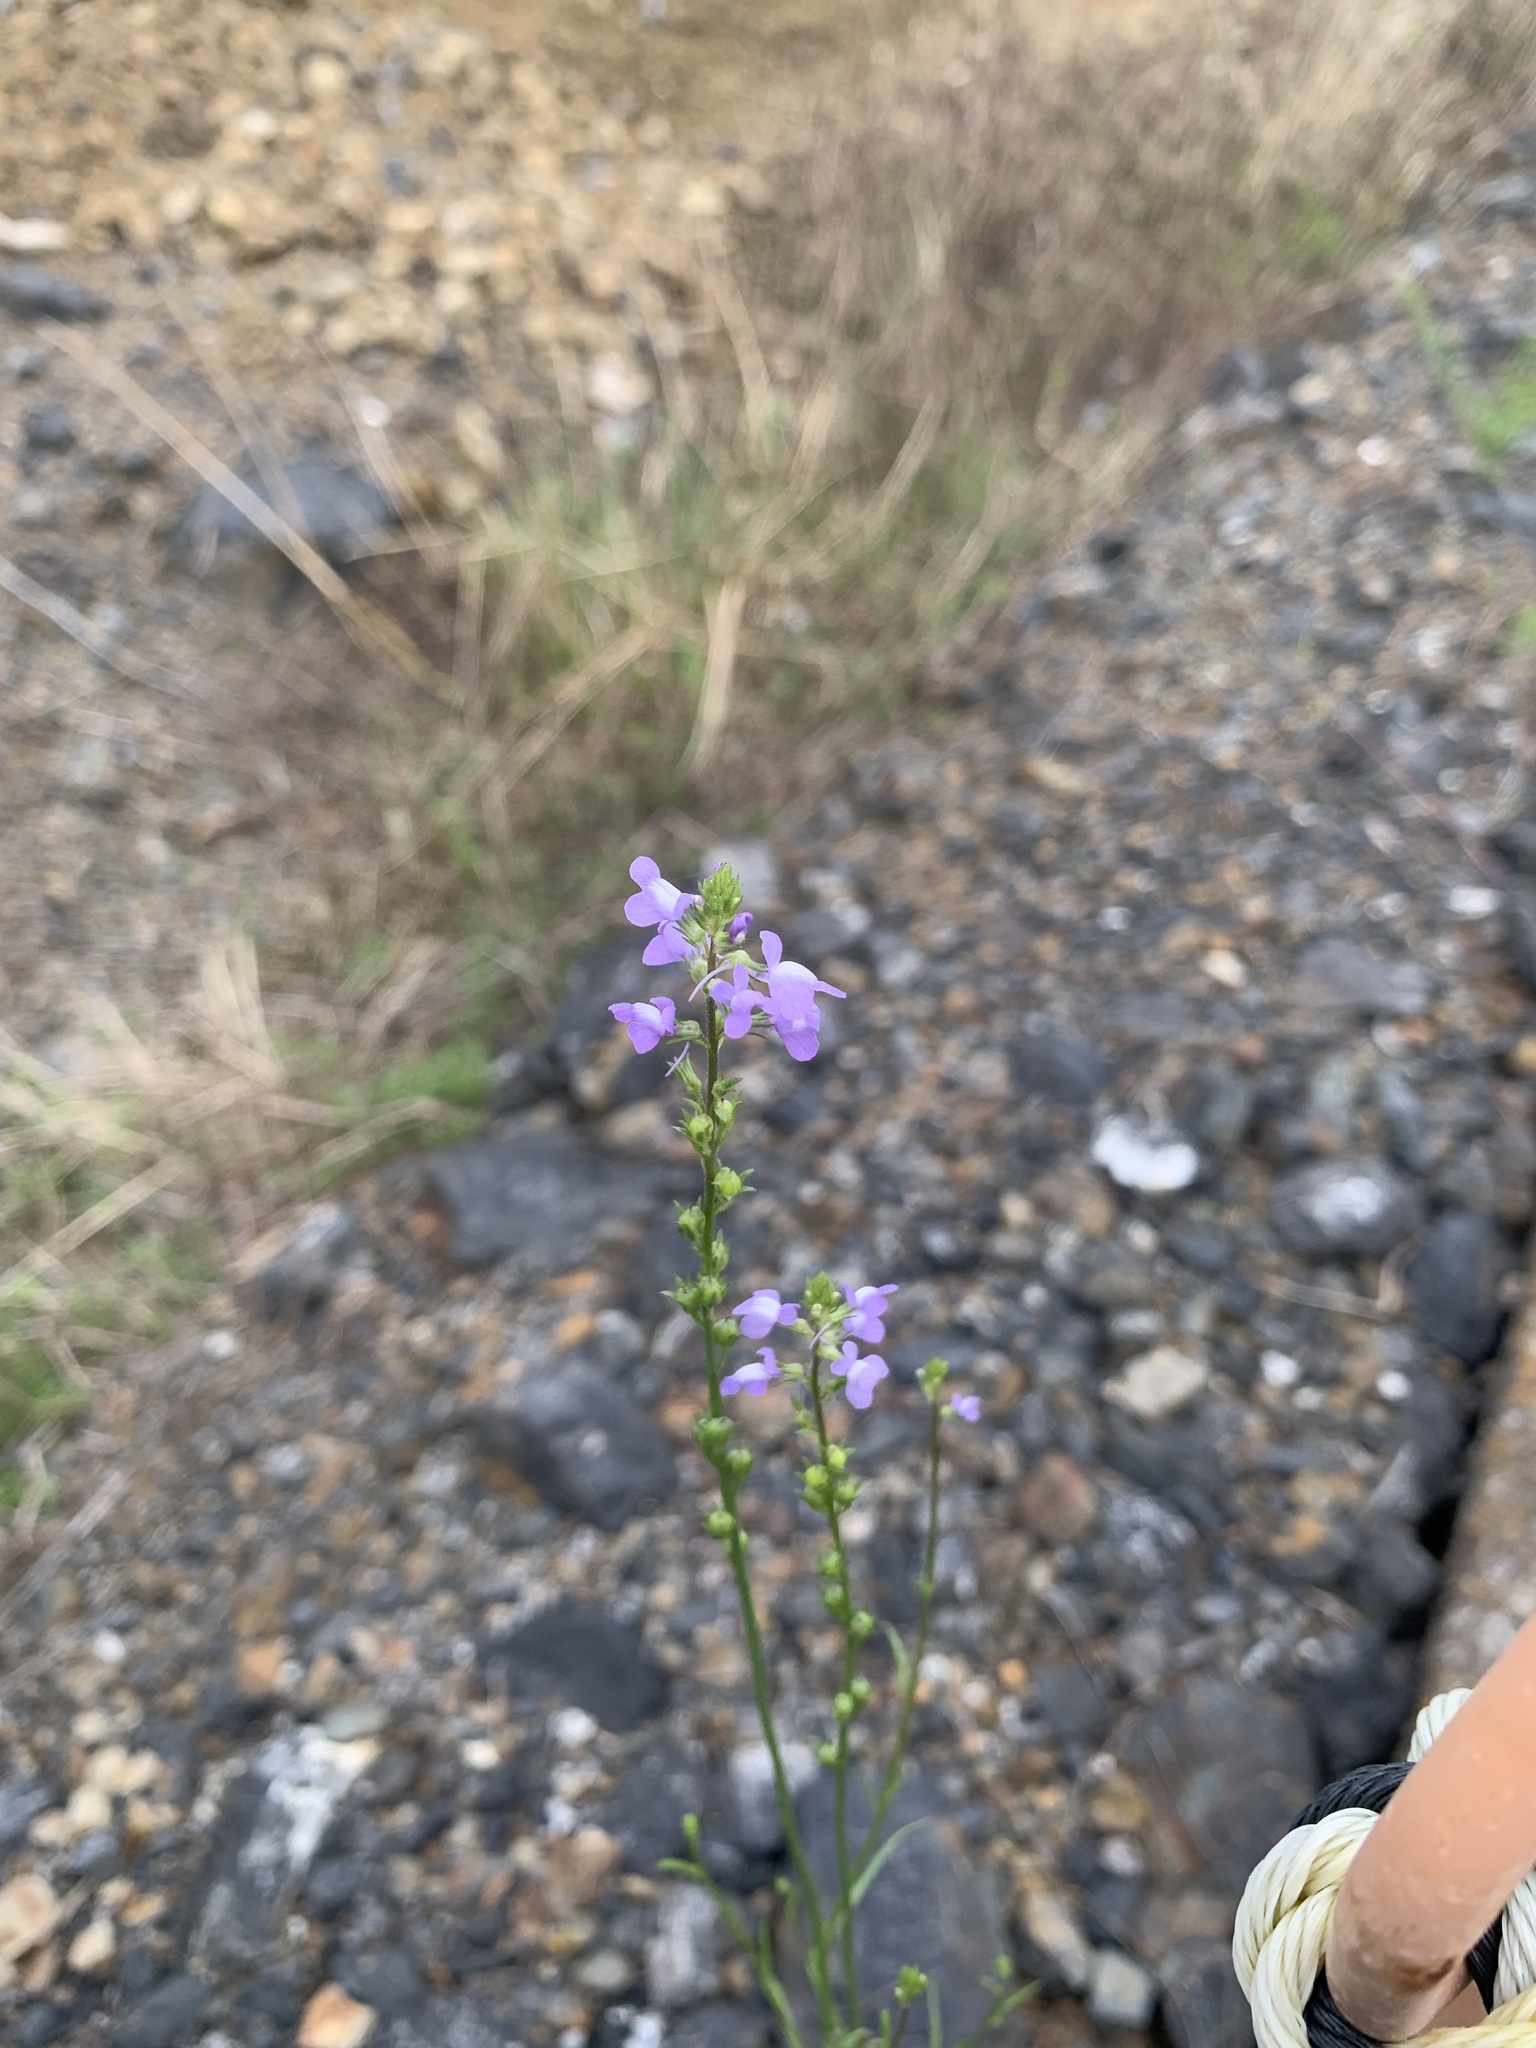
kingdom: Plantae
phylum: Tracheophyta
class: Magnoliopsida
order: Lamiales
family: Plantaginaceae
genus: Nuttallanthus
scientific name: Nuttallanthus canadensis
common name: Blue toadflax
